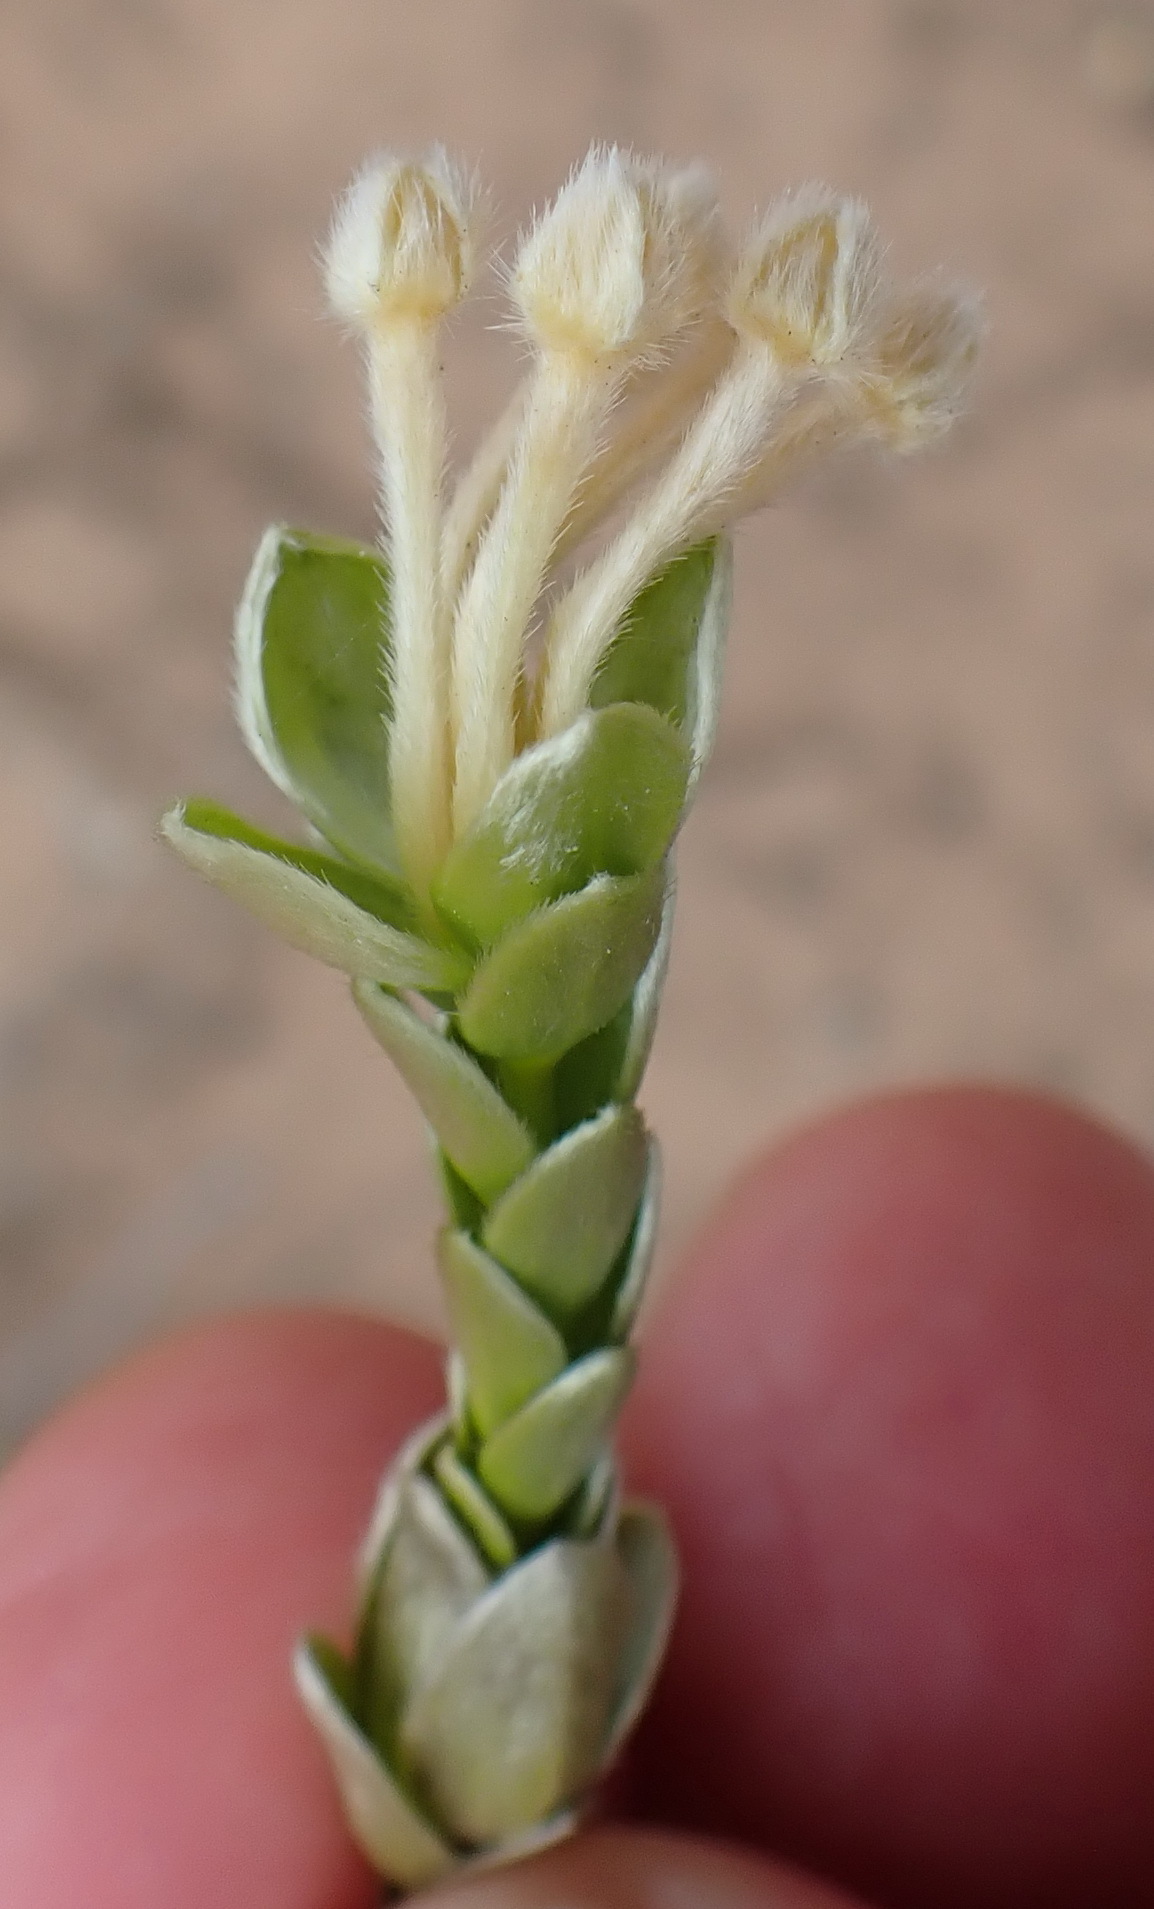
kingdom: Plantae
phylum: Tracheophyta
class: Magnoliopsida
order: Malvales
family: Thymelaeaceae
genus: Gnidia
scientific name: Gnidia chrysophylla
